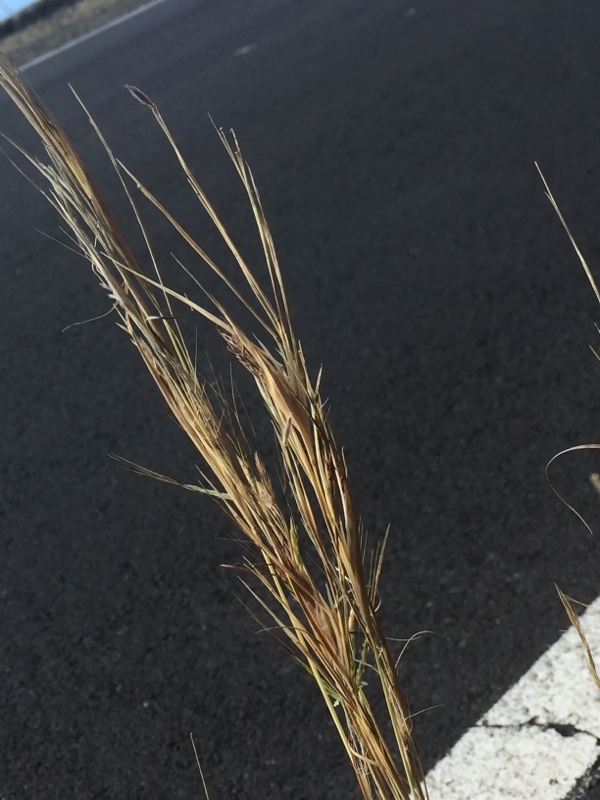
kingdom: Plantae
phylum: Tracheophyta
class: Liliopsida
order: Poales
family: Poaceae
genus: Hyparrhenia
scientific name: Hyparrhenia hirta
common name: Thatching grass
